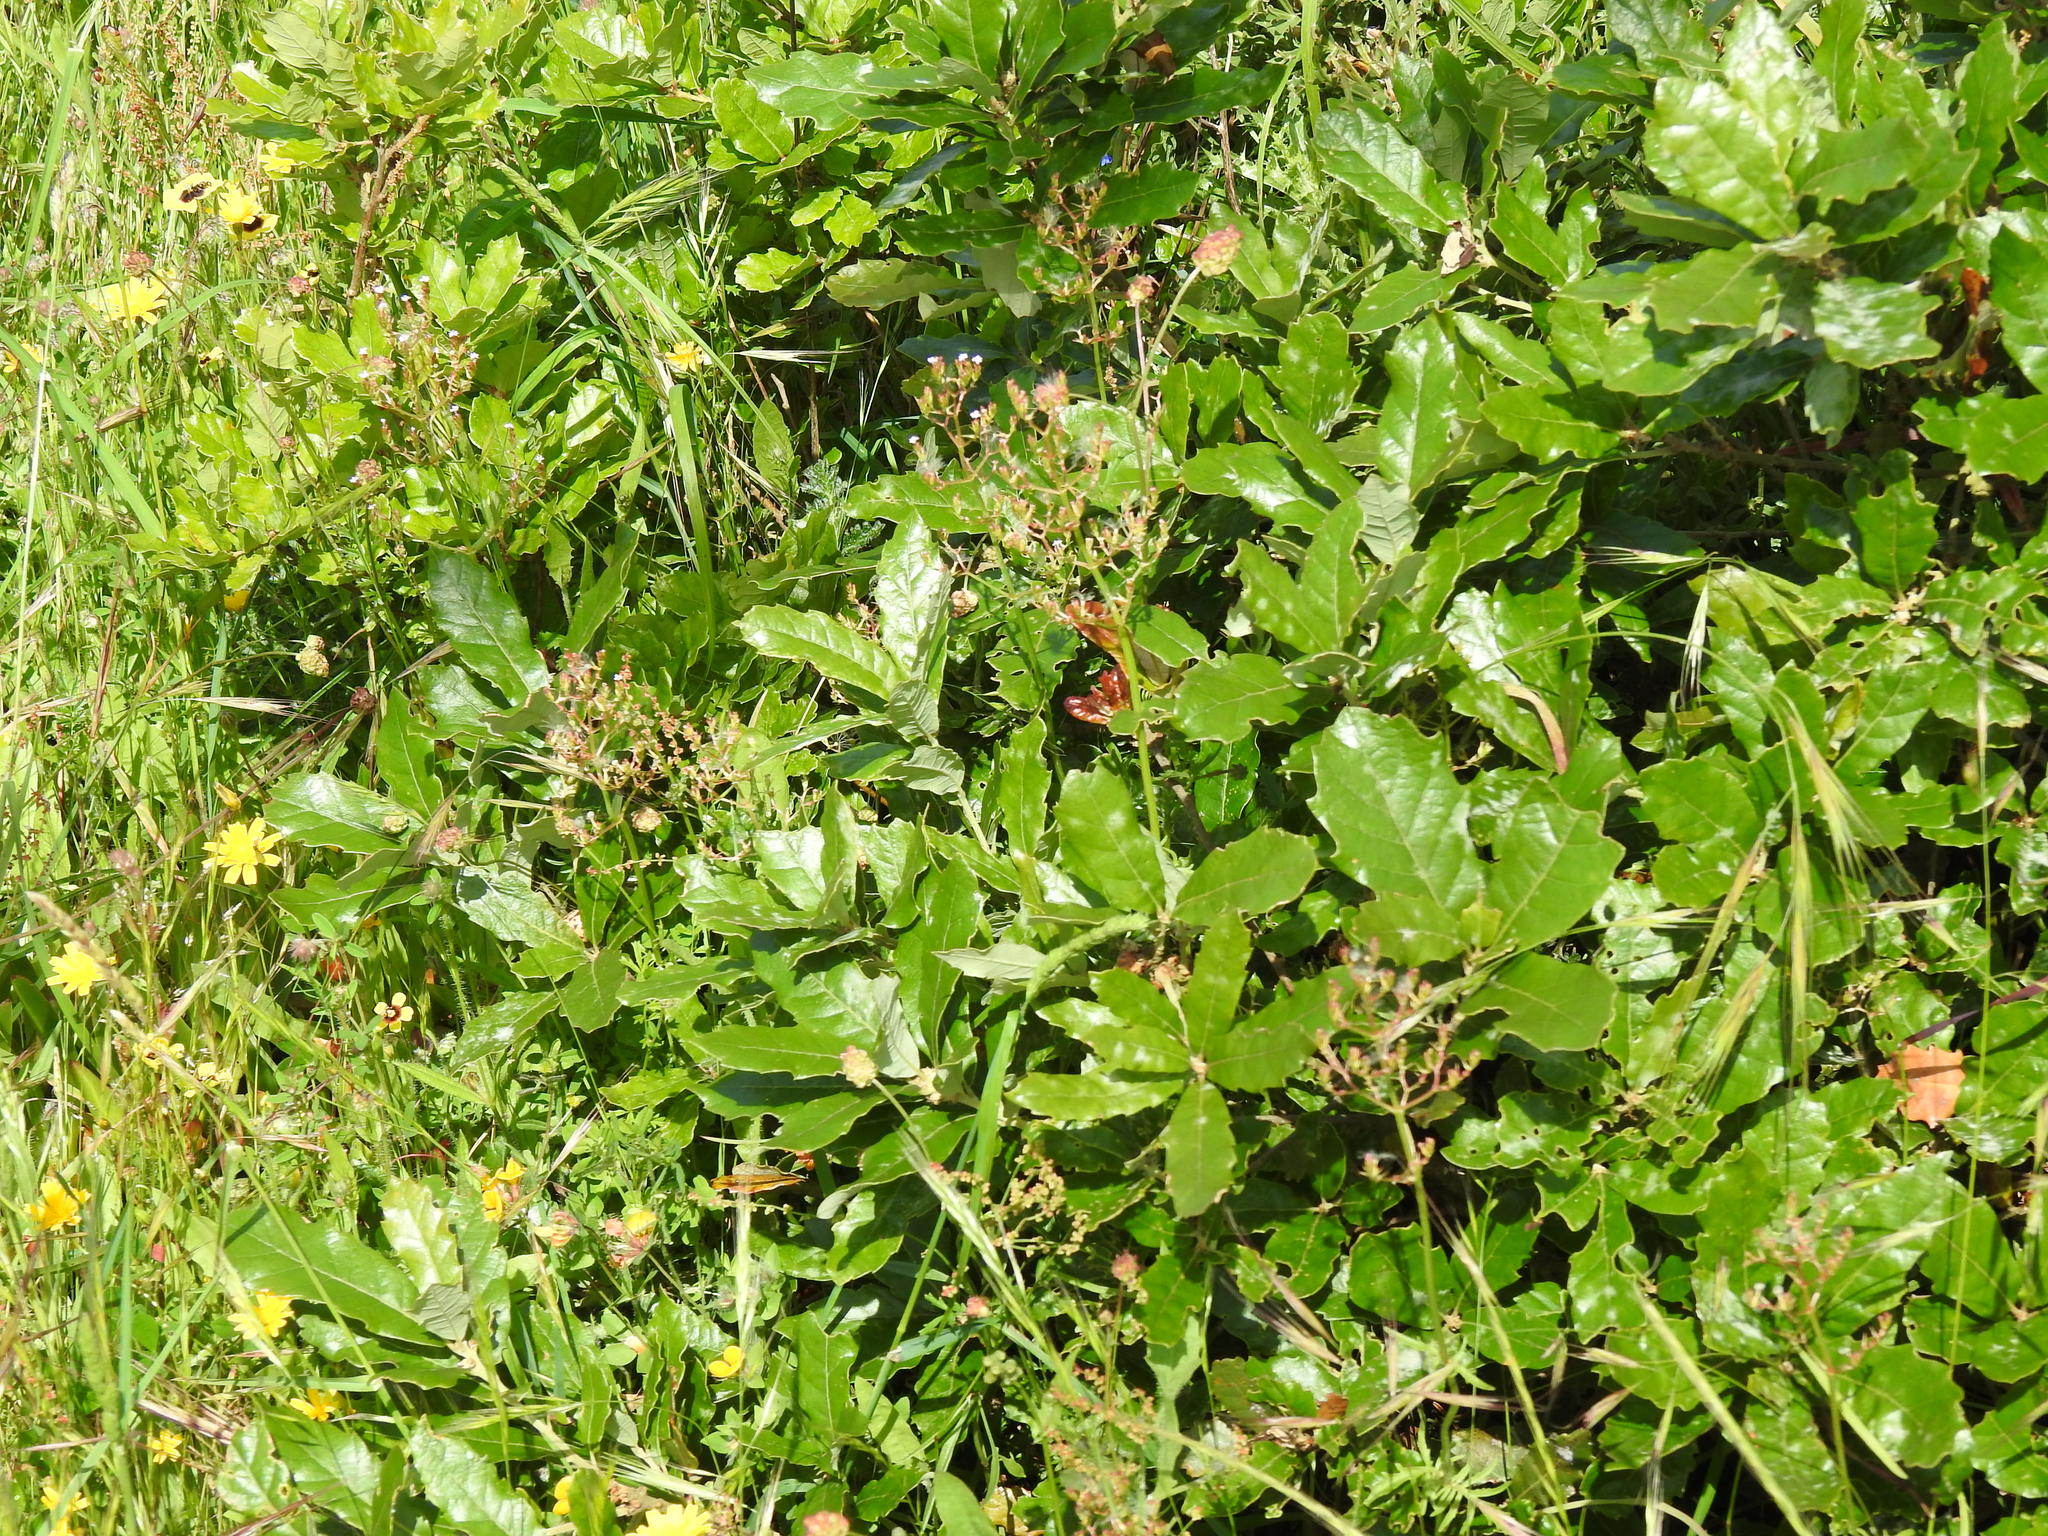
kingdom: Plantae
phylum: Tracheophyta
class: Magnoliopsida
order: Fagales
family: Fagaceae
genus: Quercus
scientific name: Quercus lusitanica
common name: Scrub gall oak
